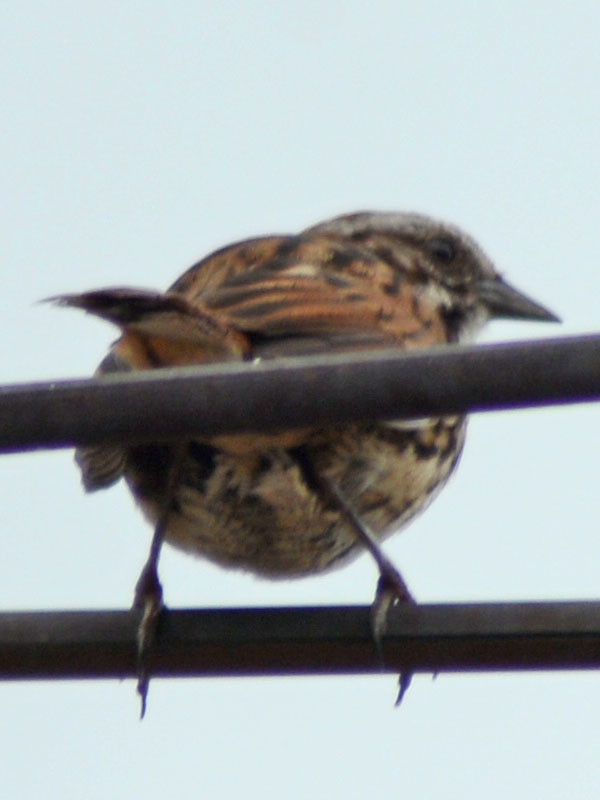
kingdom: Animalia
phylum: Chordata
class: Aves
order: Passeriformes
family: Passerellidae
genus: Melospiza
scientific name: Melospiza melodia
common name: Song sparrow
